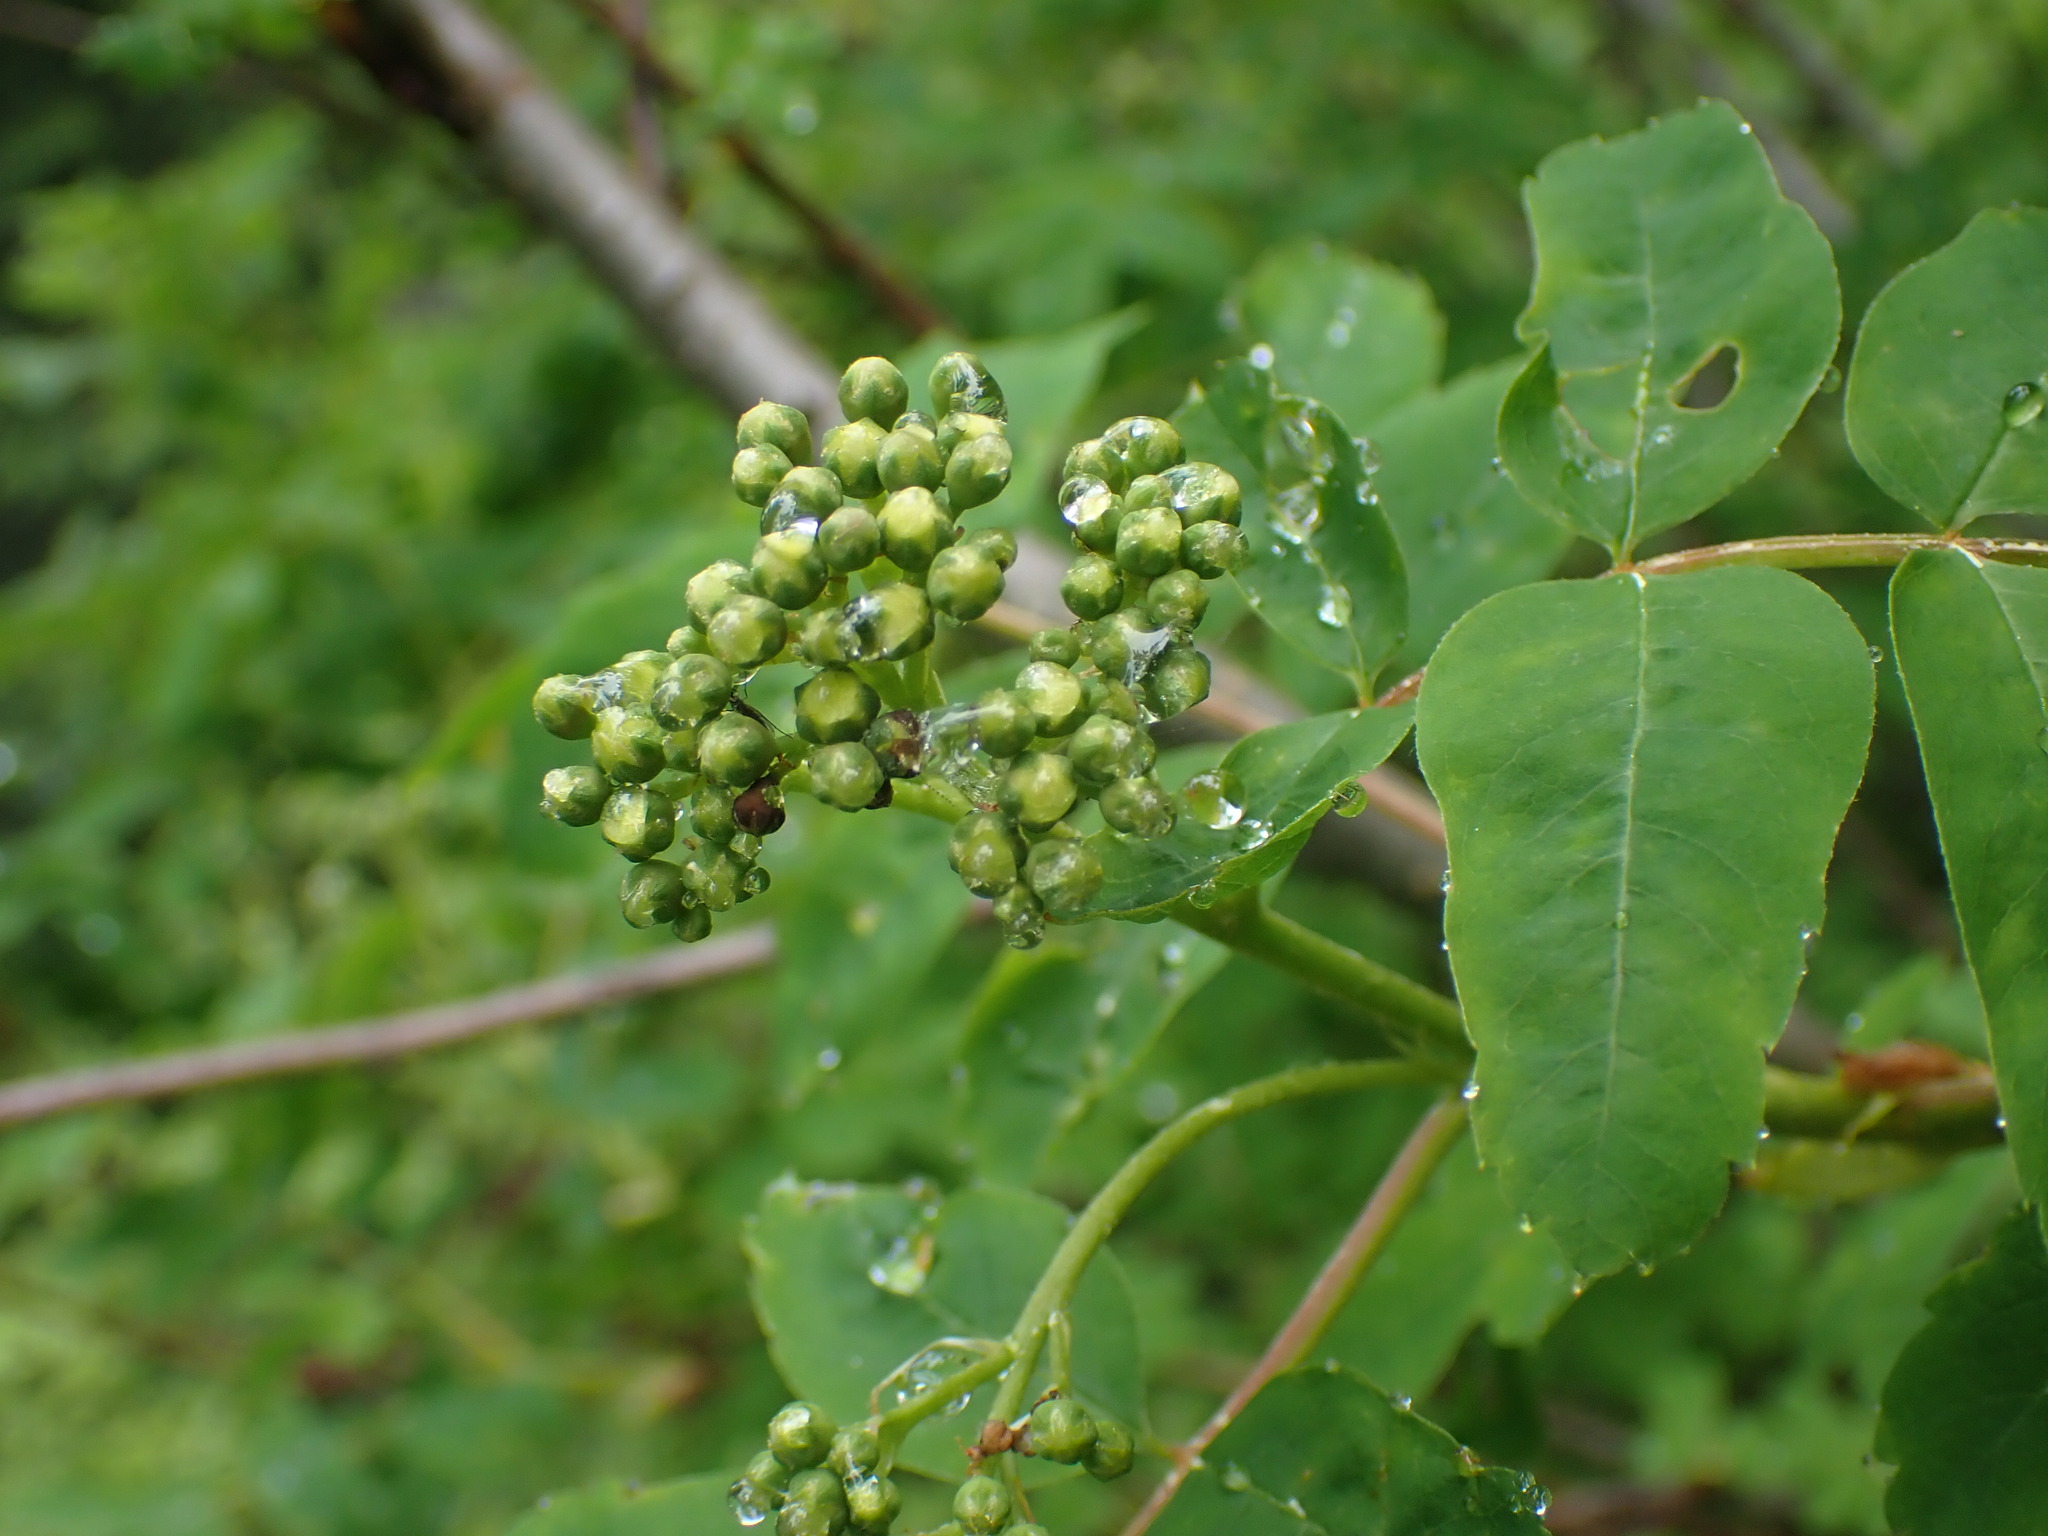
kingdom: Plantae
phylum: Tracheophyta
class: Magnoliopsida
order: Dipsacales
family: Viburnaceae
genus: Sambucus
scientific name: Sambucus racemosa
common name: Red-berried elder
